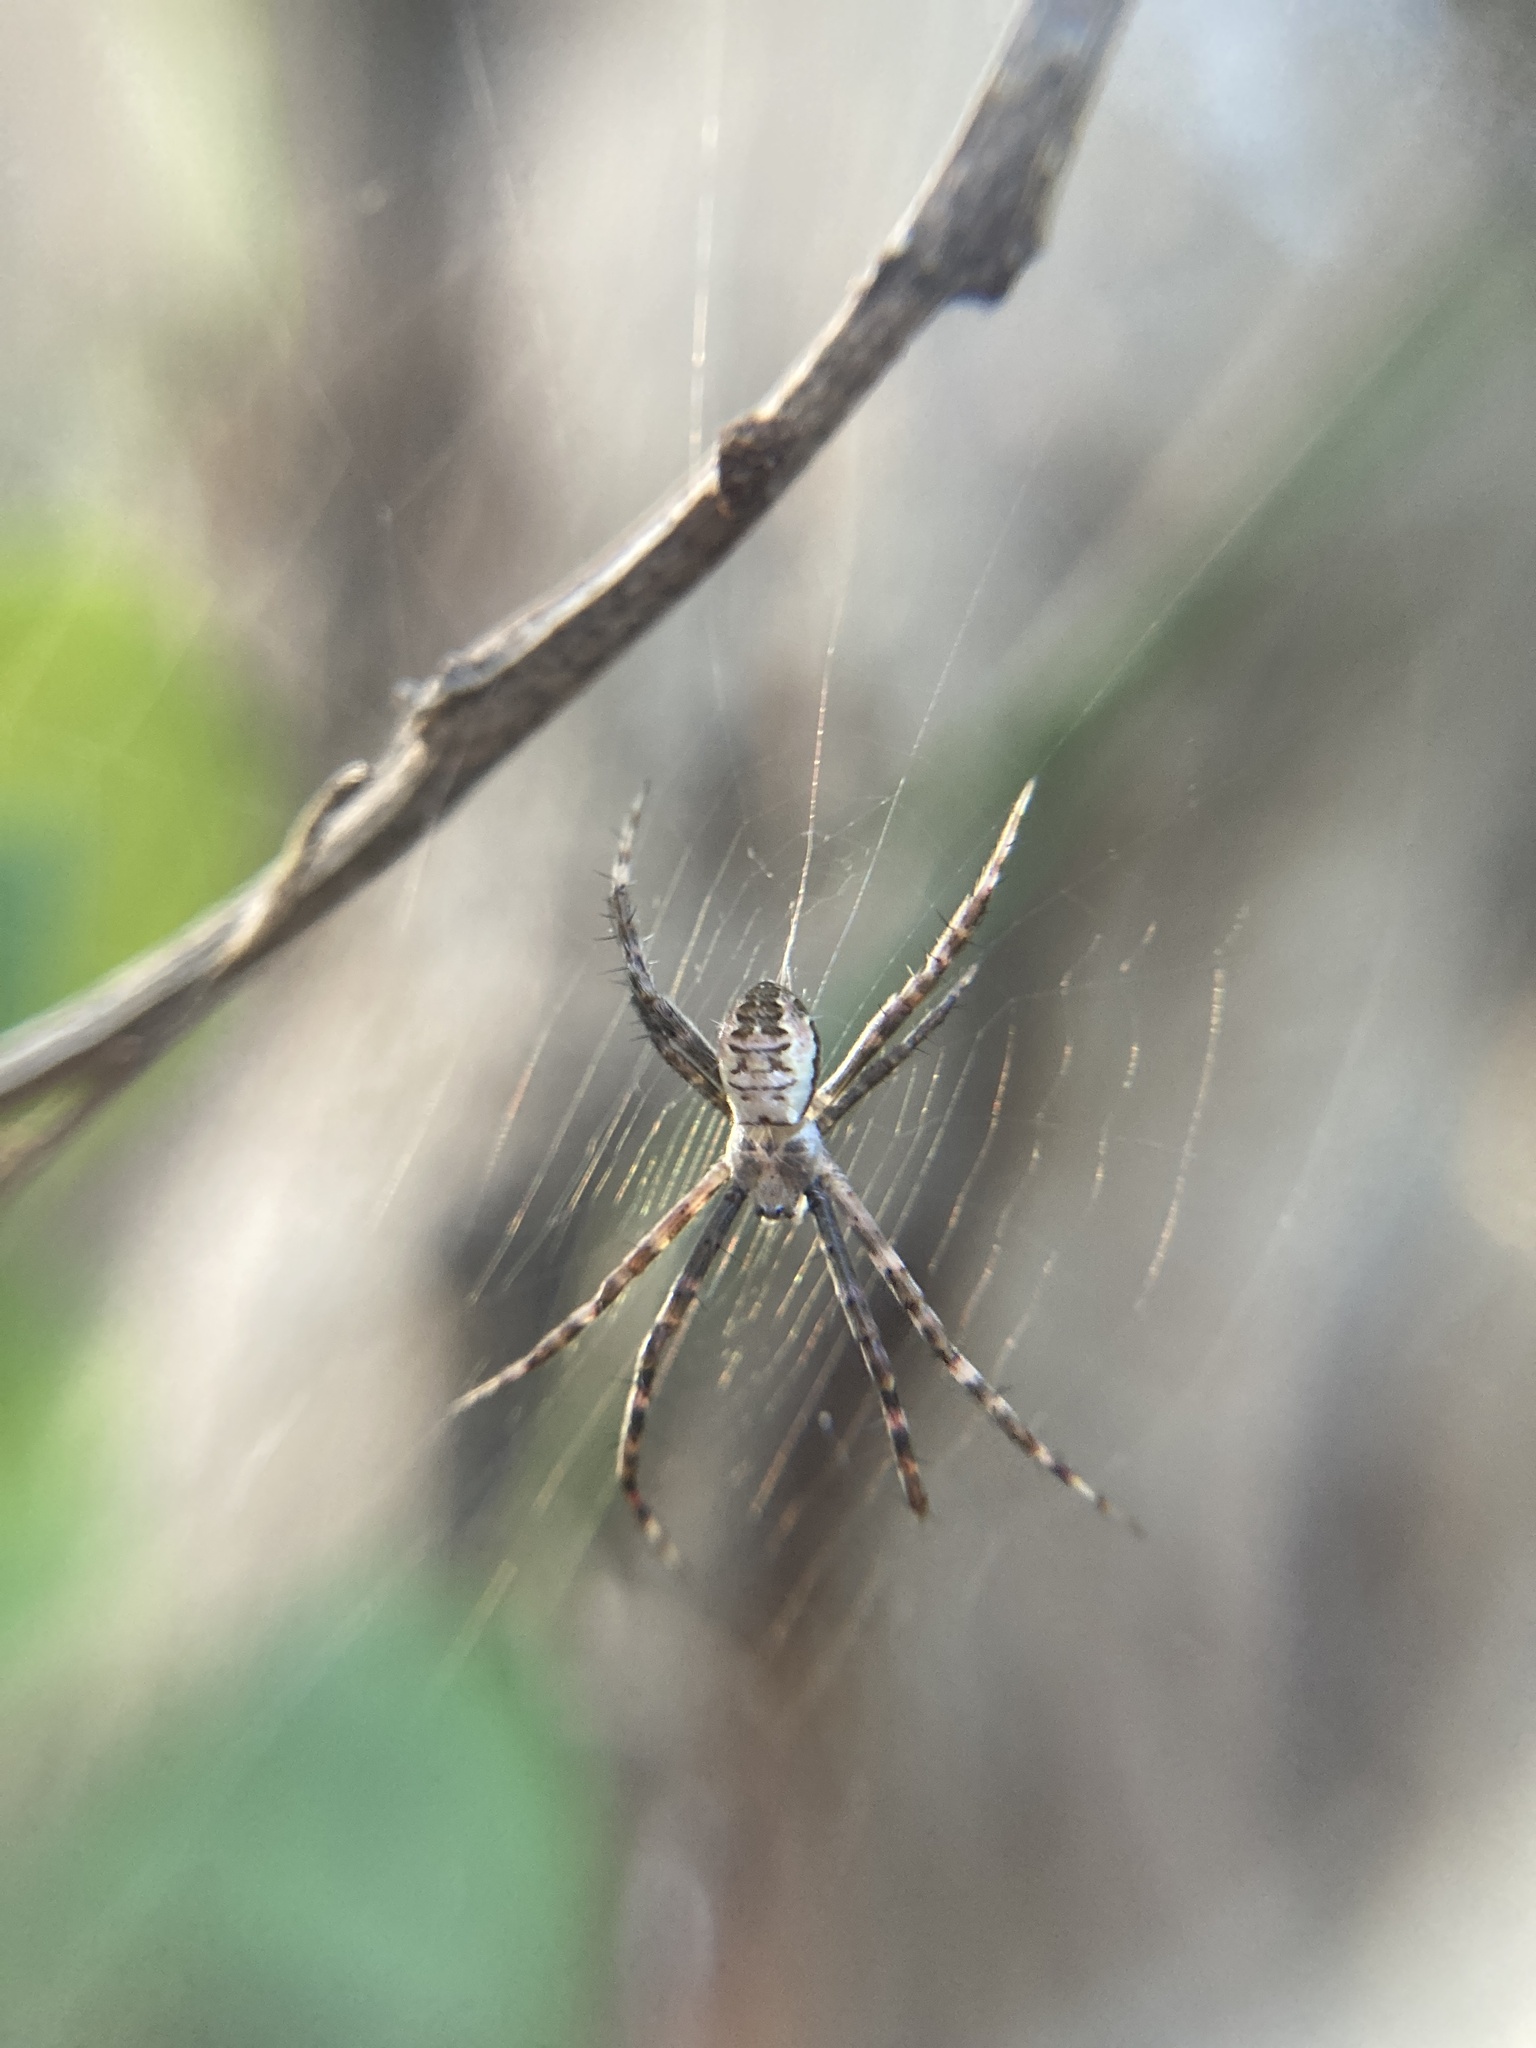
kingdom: Animalia
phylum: Arthropoda
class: Arachnida
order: Araneae
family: Araneidae
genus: Argiope
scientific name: Argiope keyserlingi
